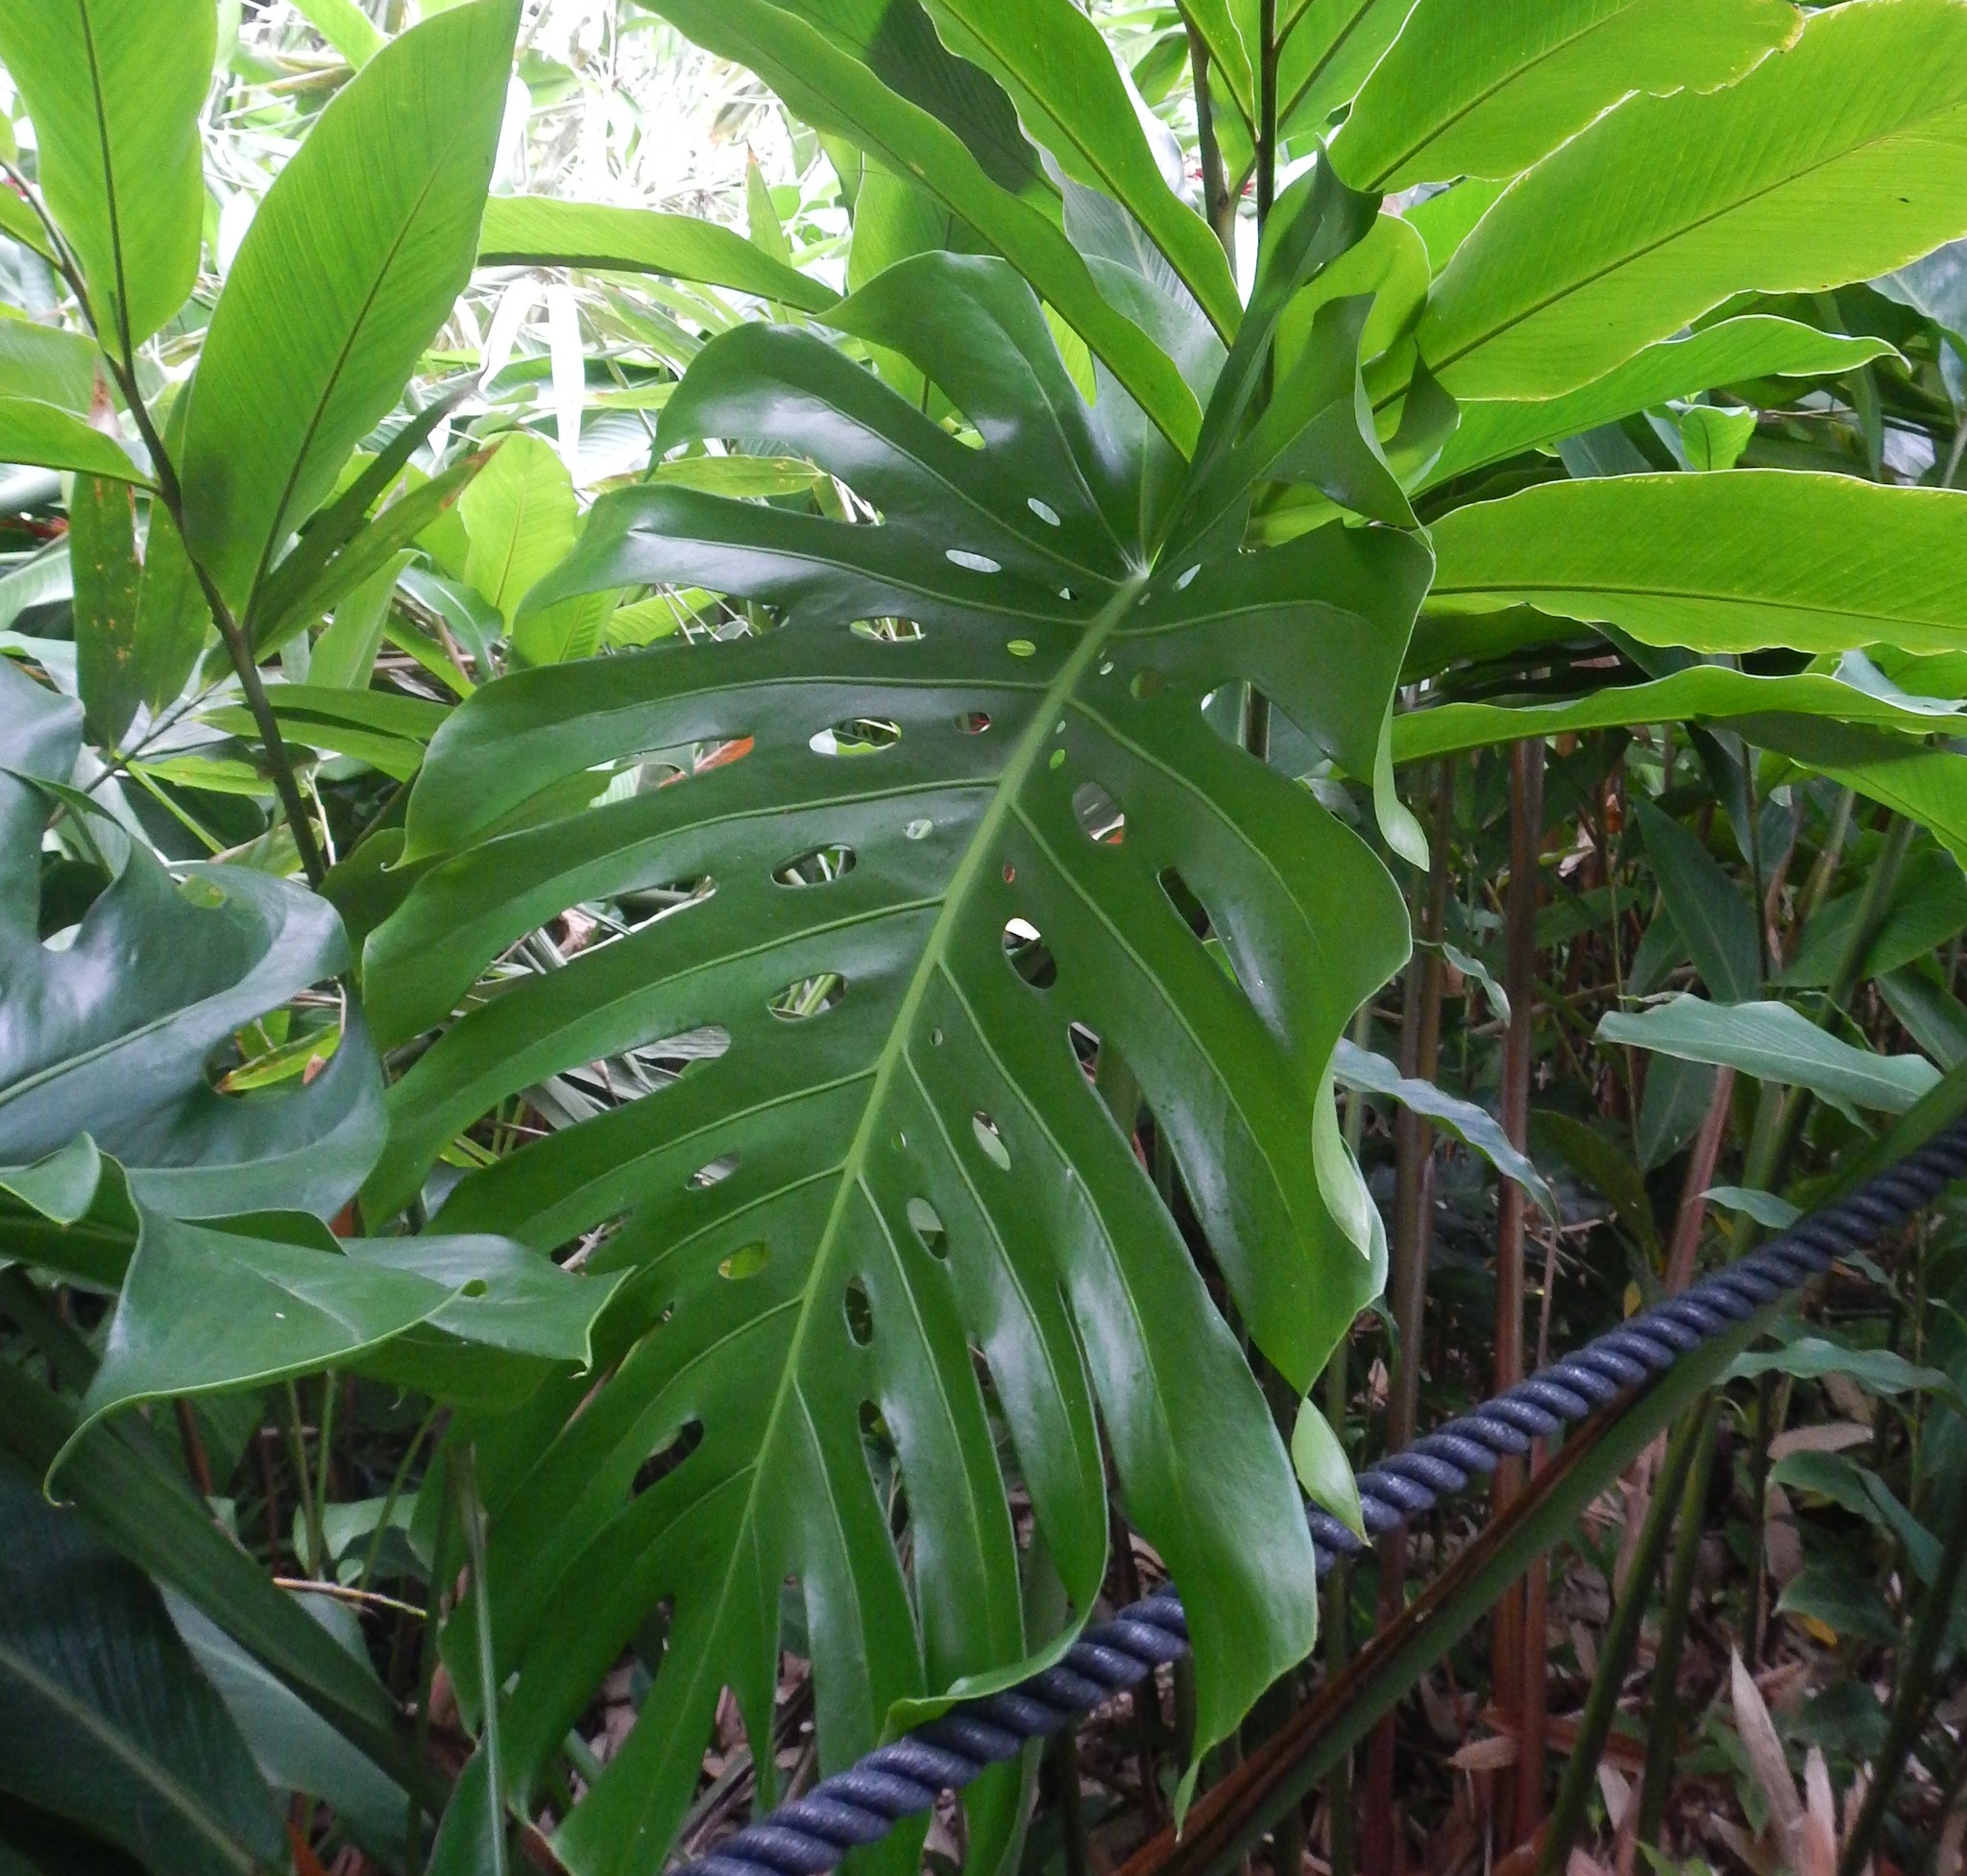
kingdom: Plantae
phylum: Tracheophyta
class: Liliopsida
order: Alismatales
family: Araceae
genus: Monstera
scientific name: Monstera deliciosa
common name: Cut-leaf-philodendron
